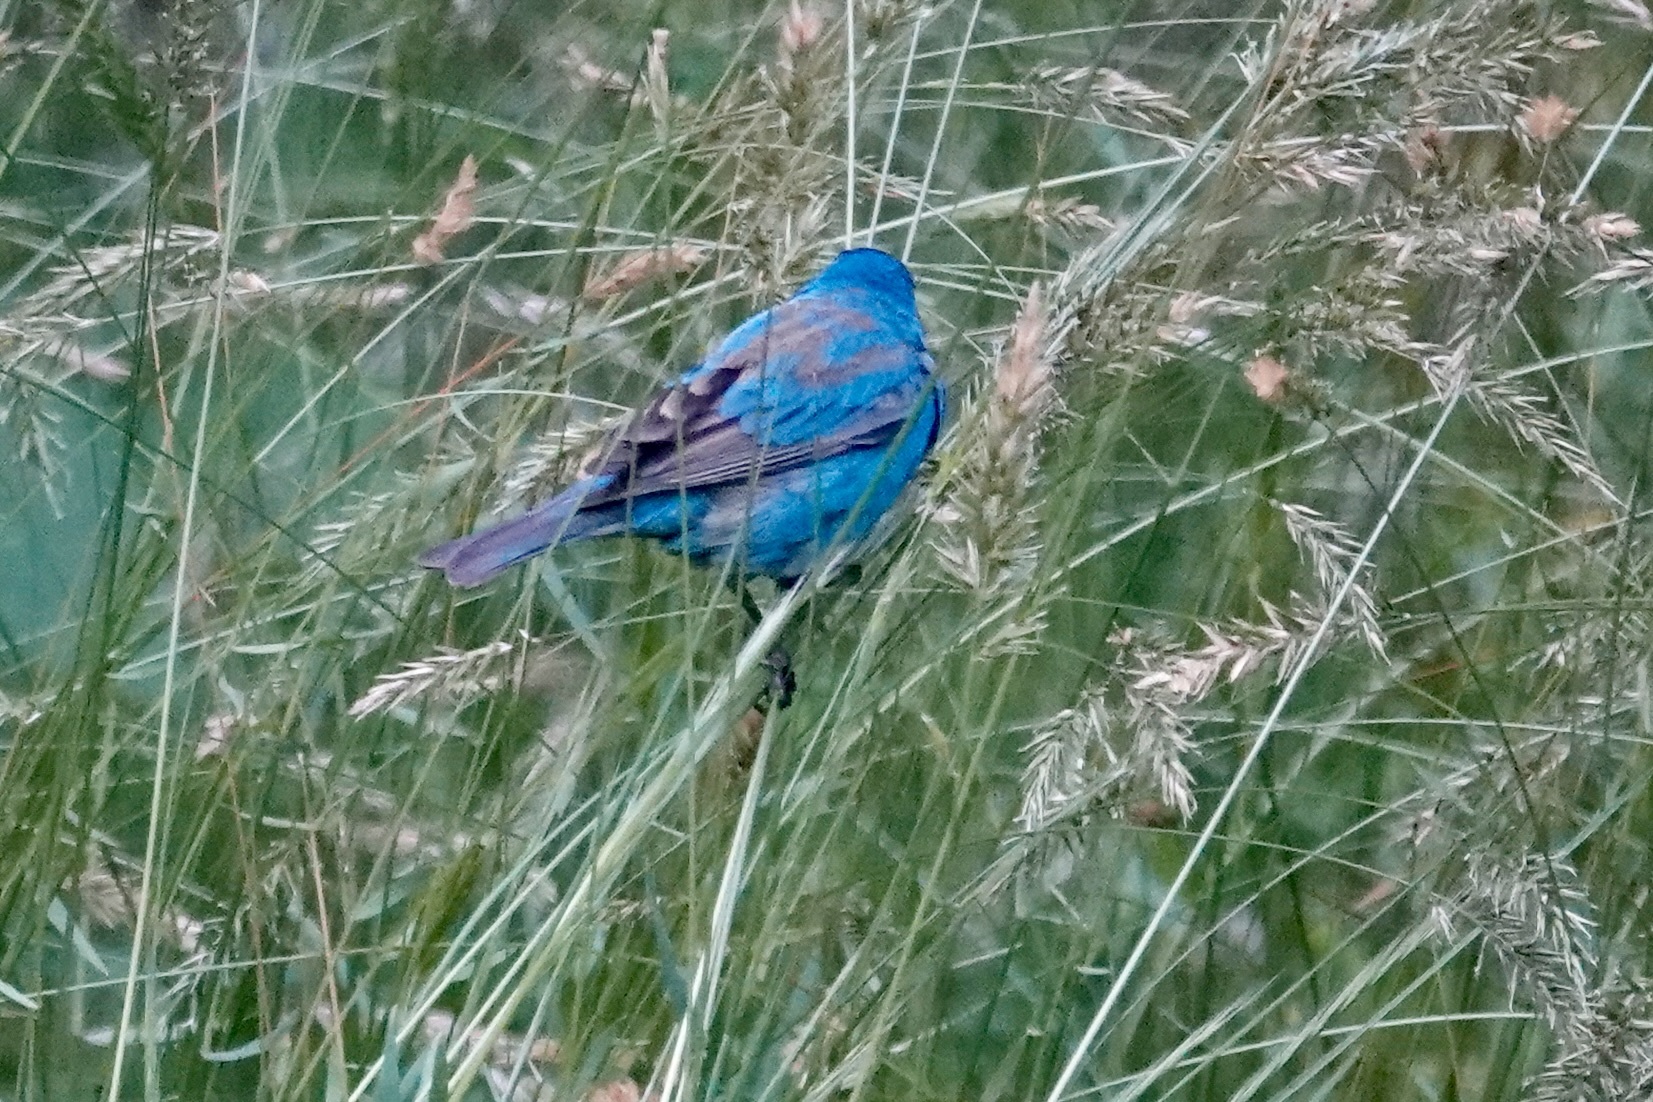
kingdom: Animalia
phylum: Chordata
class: Aves
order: Passeriformes
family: Cardinalidae
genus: Passerina
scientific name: Passerina cyanea
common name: Indigo bunting
